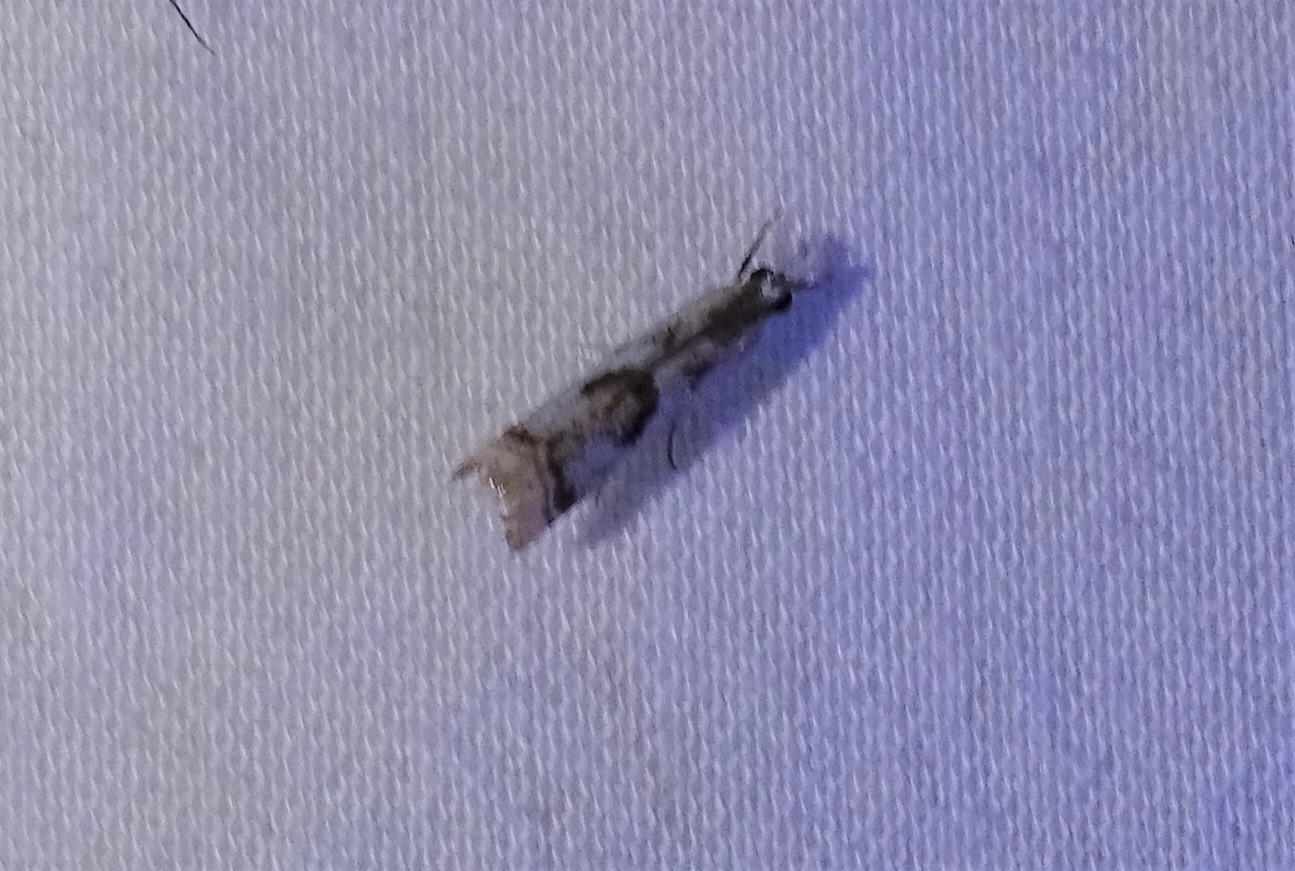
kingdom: Animalia
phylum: Arthropoda
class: Insecta
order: Lepidoptera
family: Crambidae
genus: Microcrambus
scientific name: Microcrambus elegans
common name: Elegant grass-veneer
